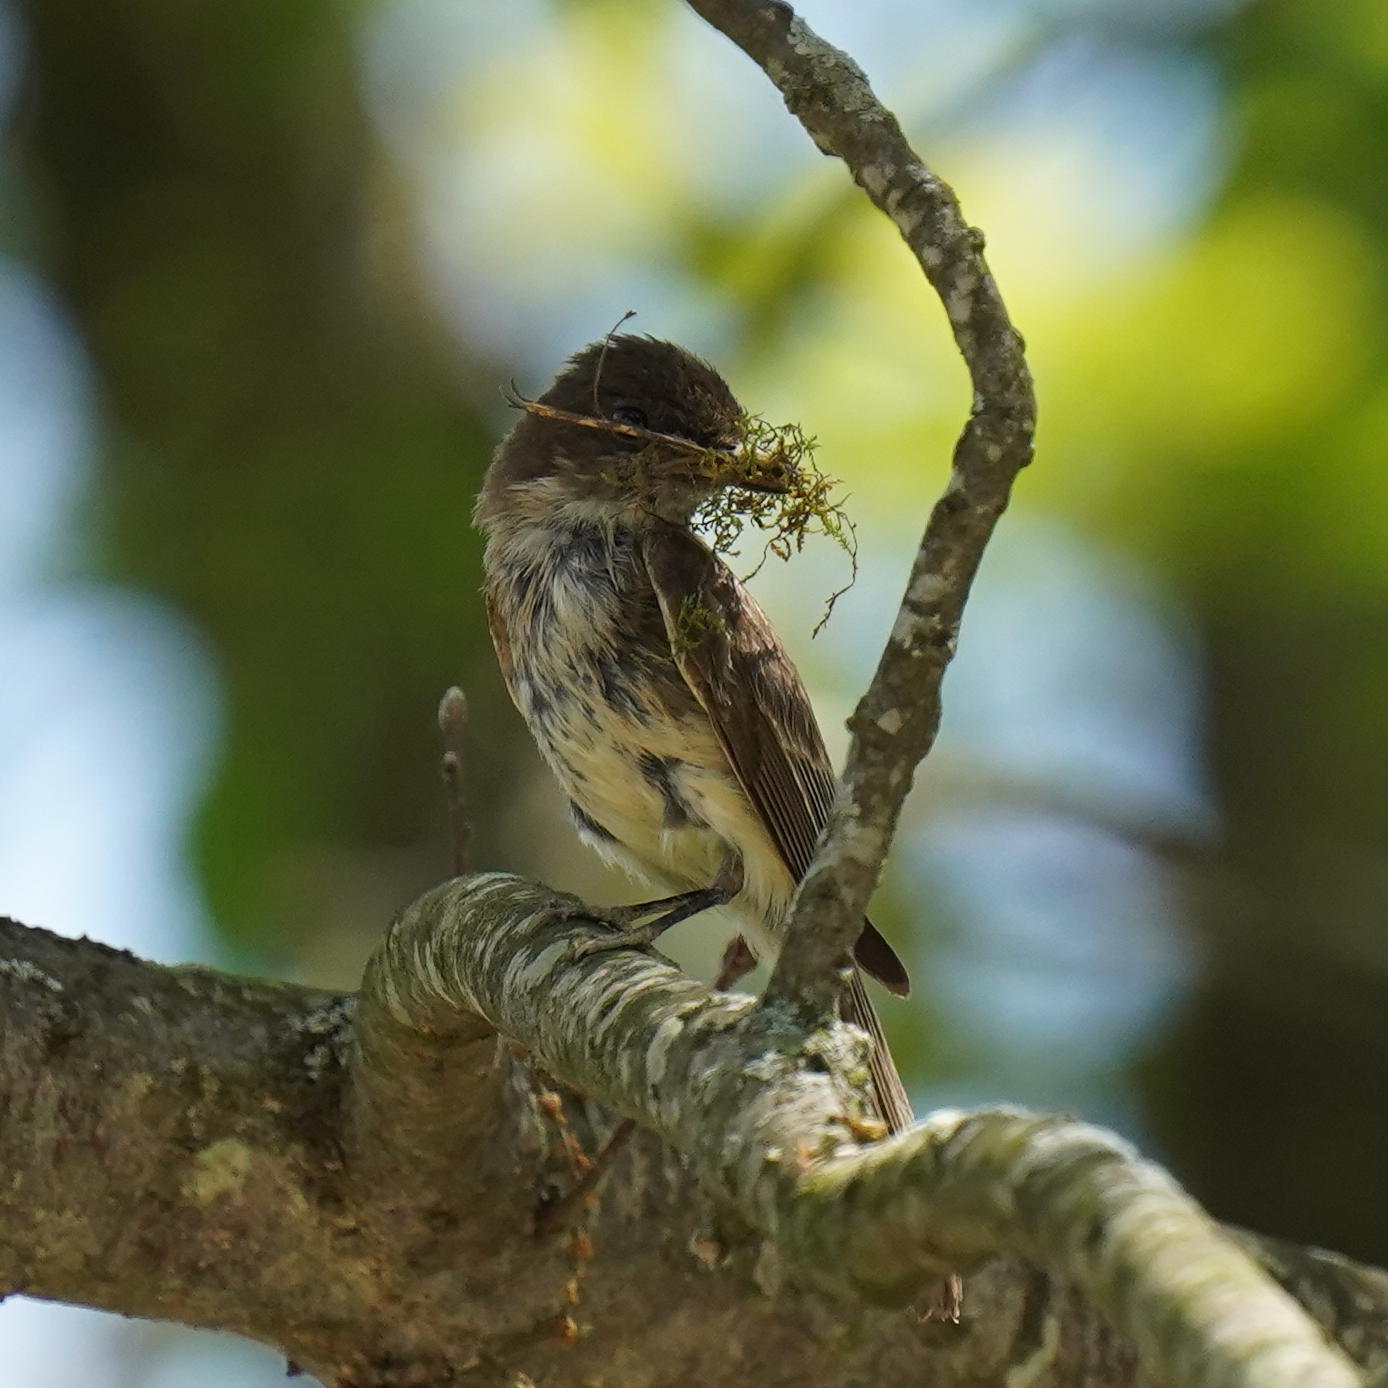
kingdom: Animalia
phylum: Chordata
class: Aves
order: Passeriformes
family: Tyrannidae
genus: Sayornis
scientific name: Sayornis phoebe
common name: Eastern phoebe
